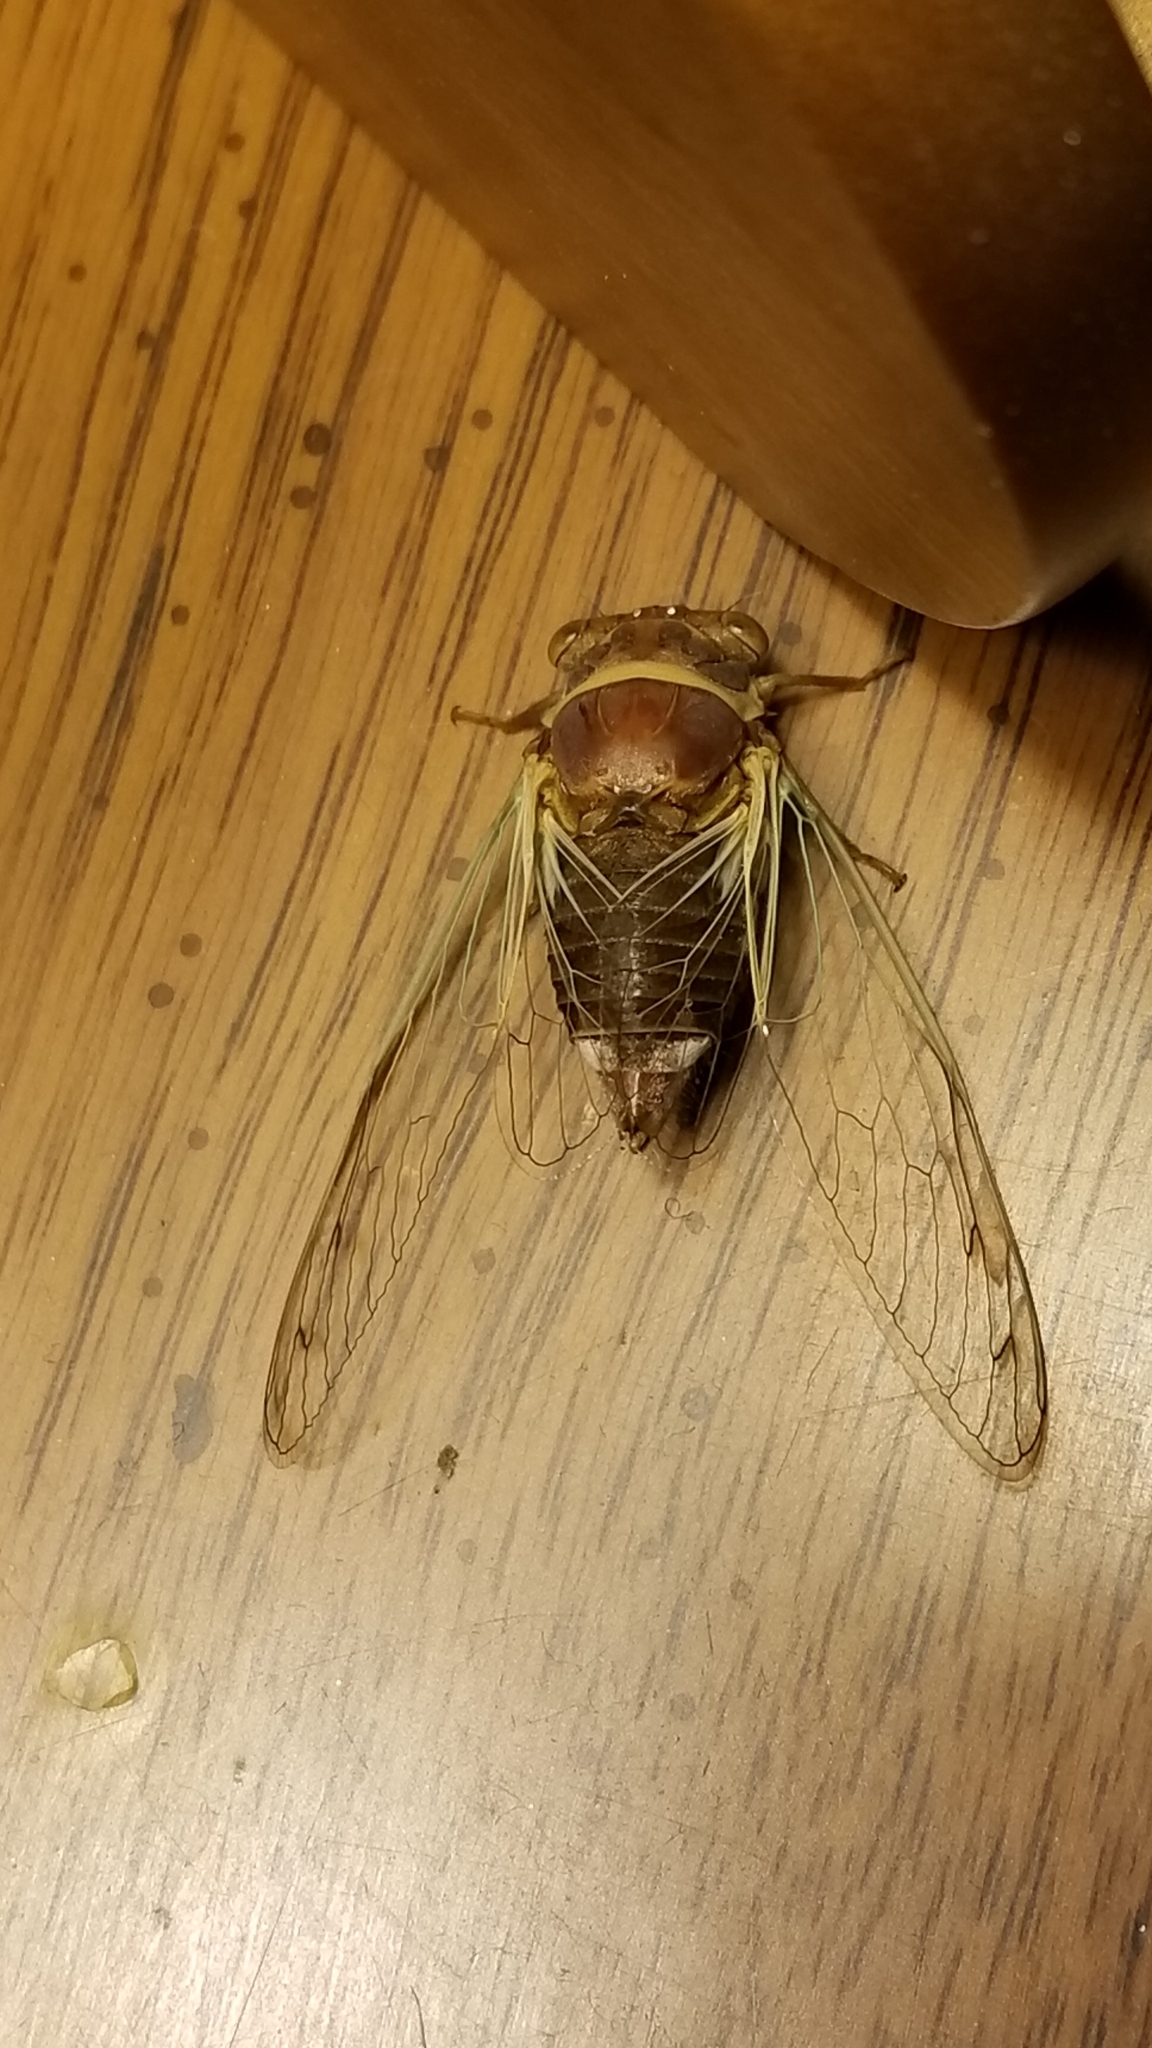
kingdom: Animalia
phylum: Arthropoda
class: Insecta
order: Hemiptera
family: Cicadidae
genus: Diceroprocta
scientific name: Diceroprocta apache
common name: Desert cicada
